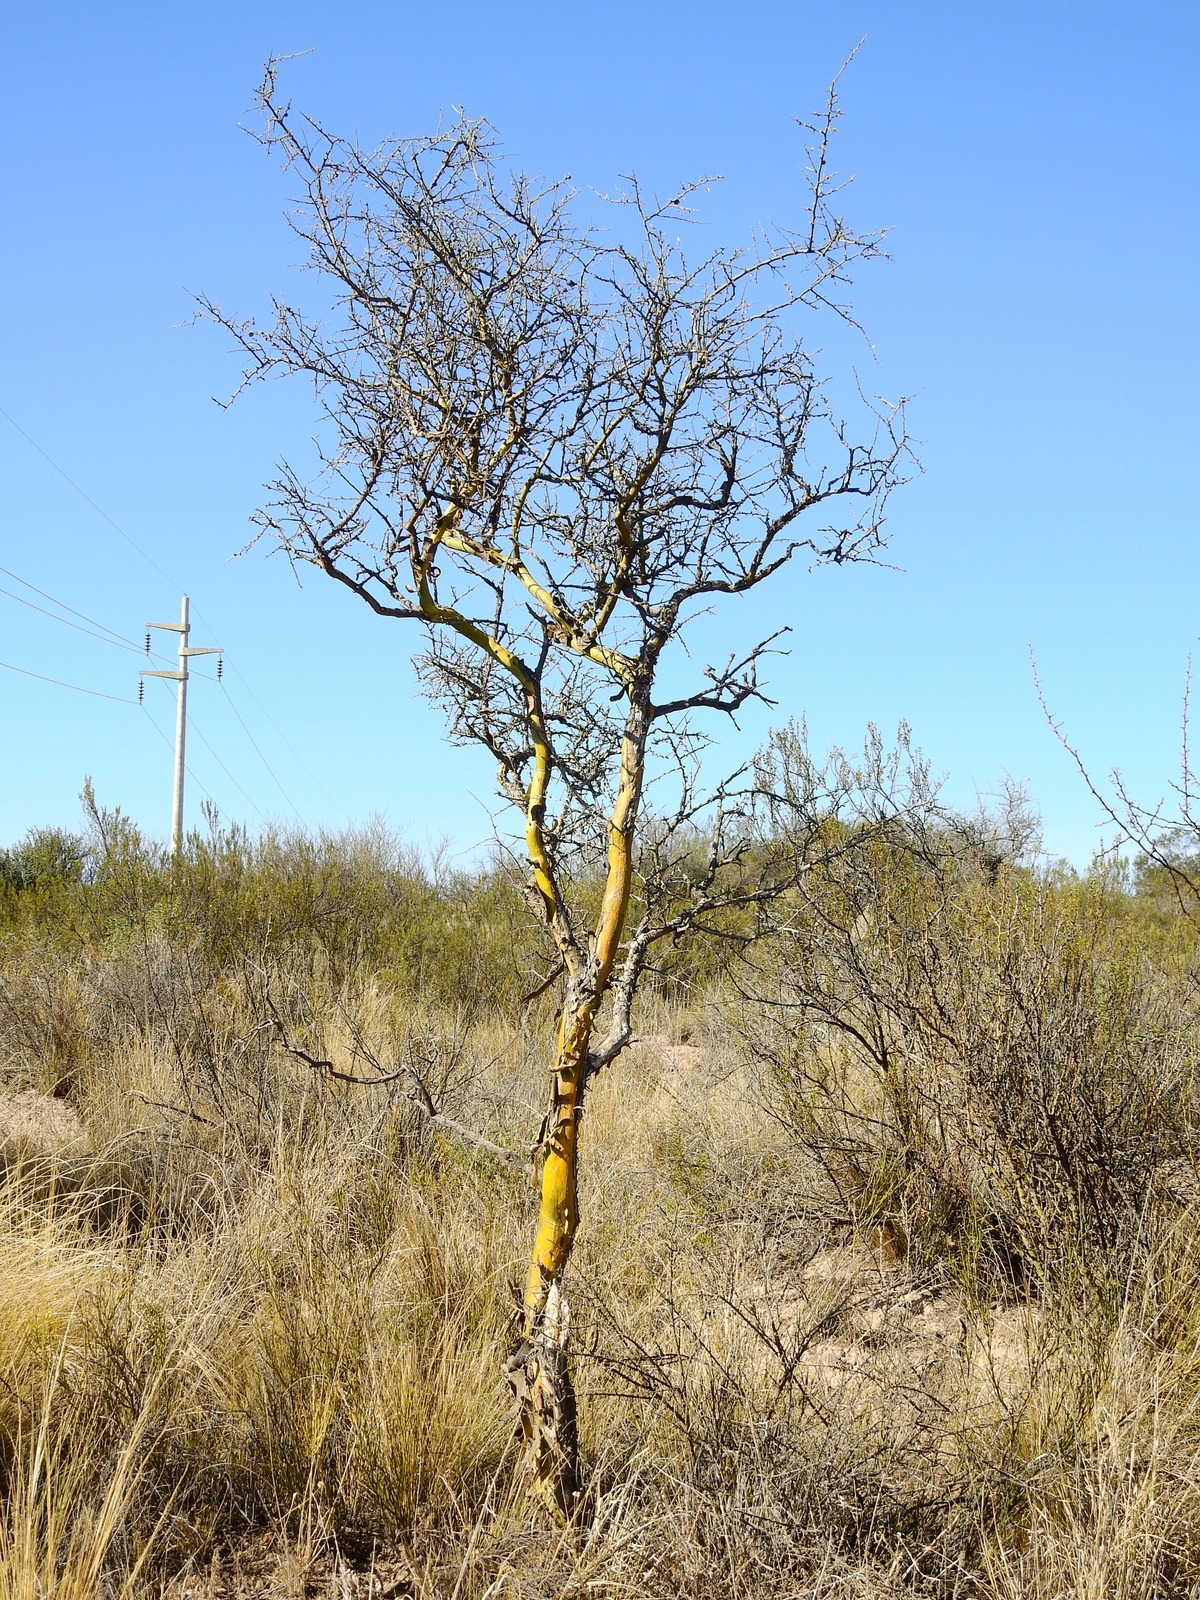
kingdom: Plantae
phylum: Tracheophyta
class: Magnoliopsida
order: Fabales
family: Fabaceae
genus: Geoffroea
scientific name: Geoffroea decorticans
